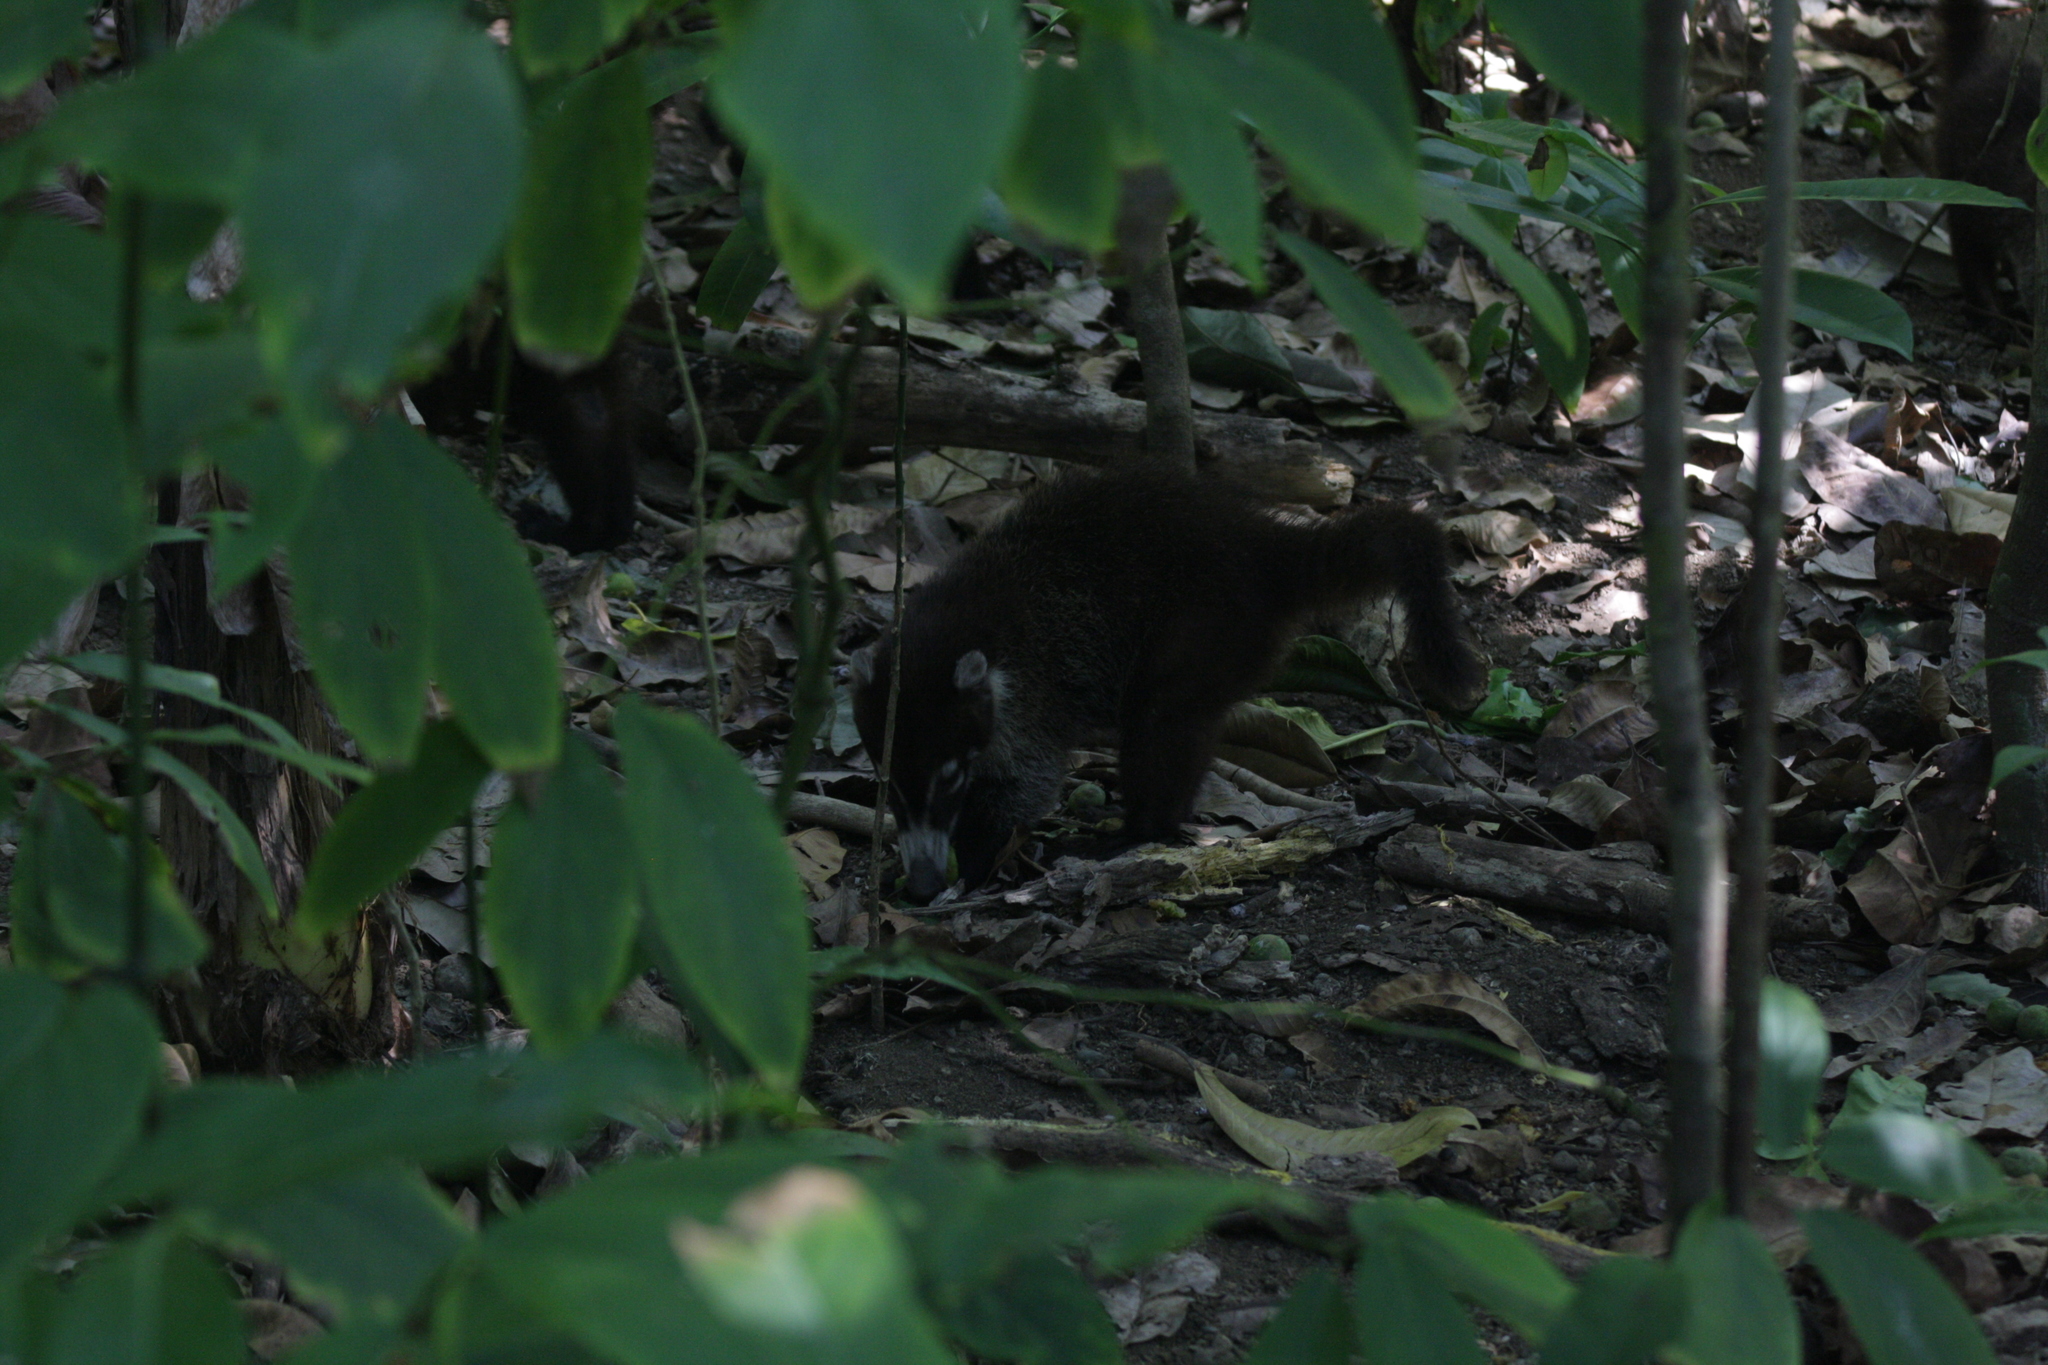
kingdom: Animalia
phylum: Chordata
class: Mammalia
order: Carnivora
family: Procyonidae
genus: Nasua
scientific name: Nasua narica
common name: White-nosed coati
